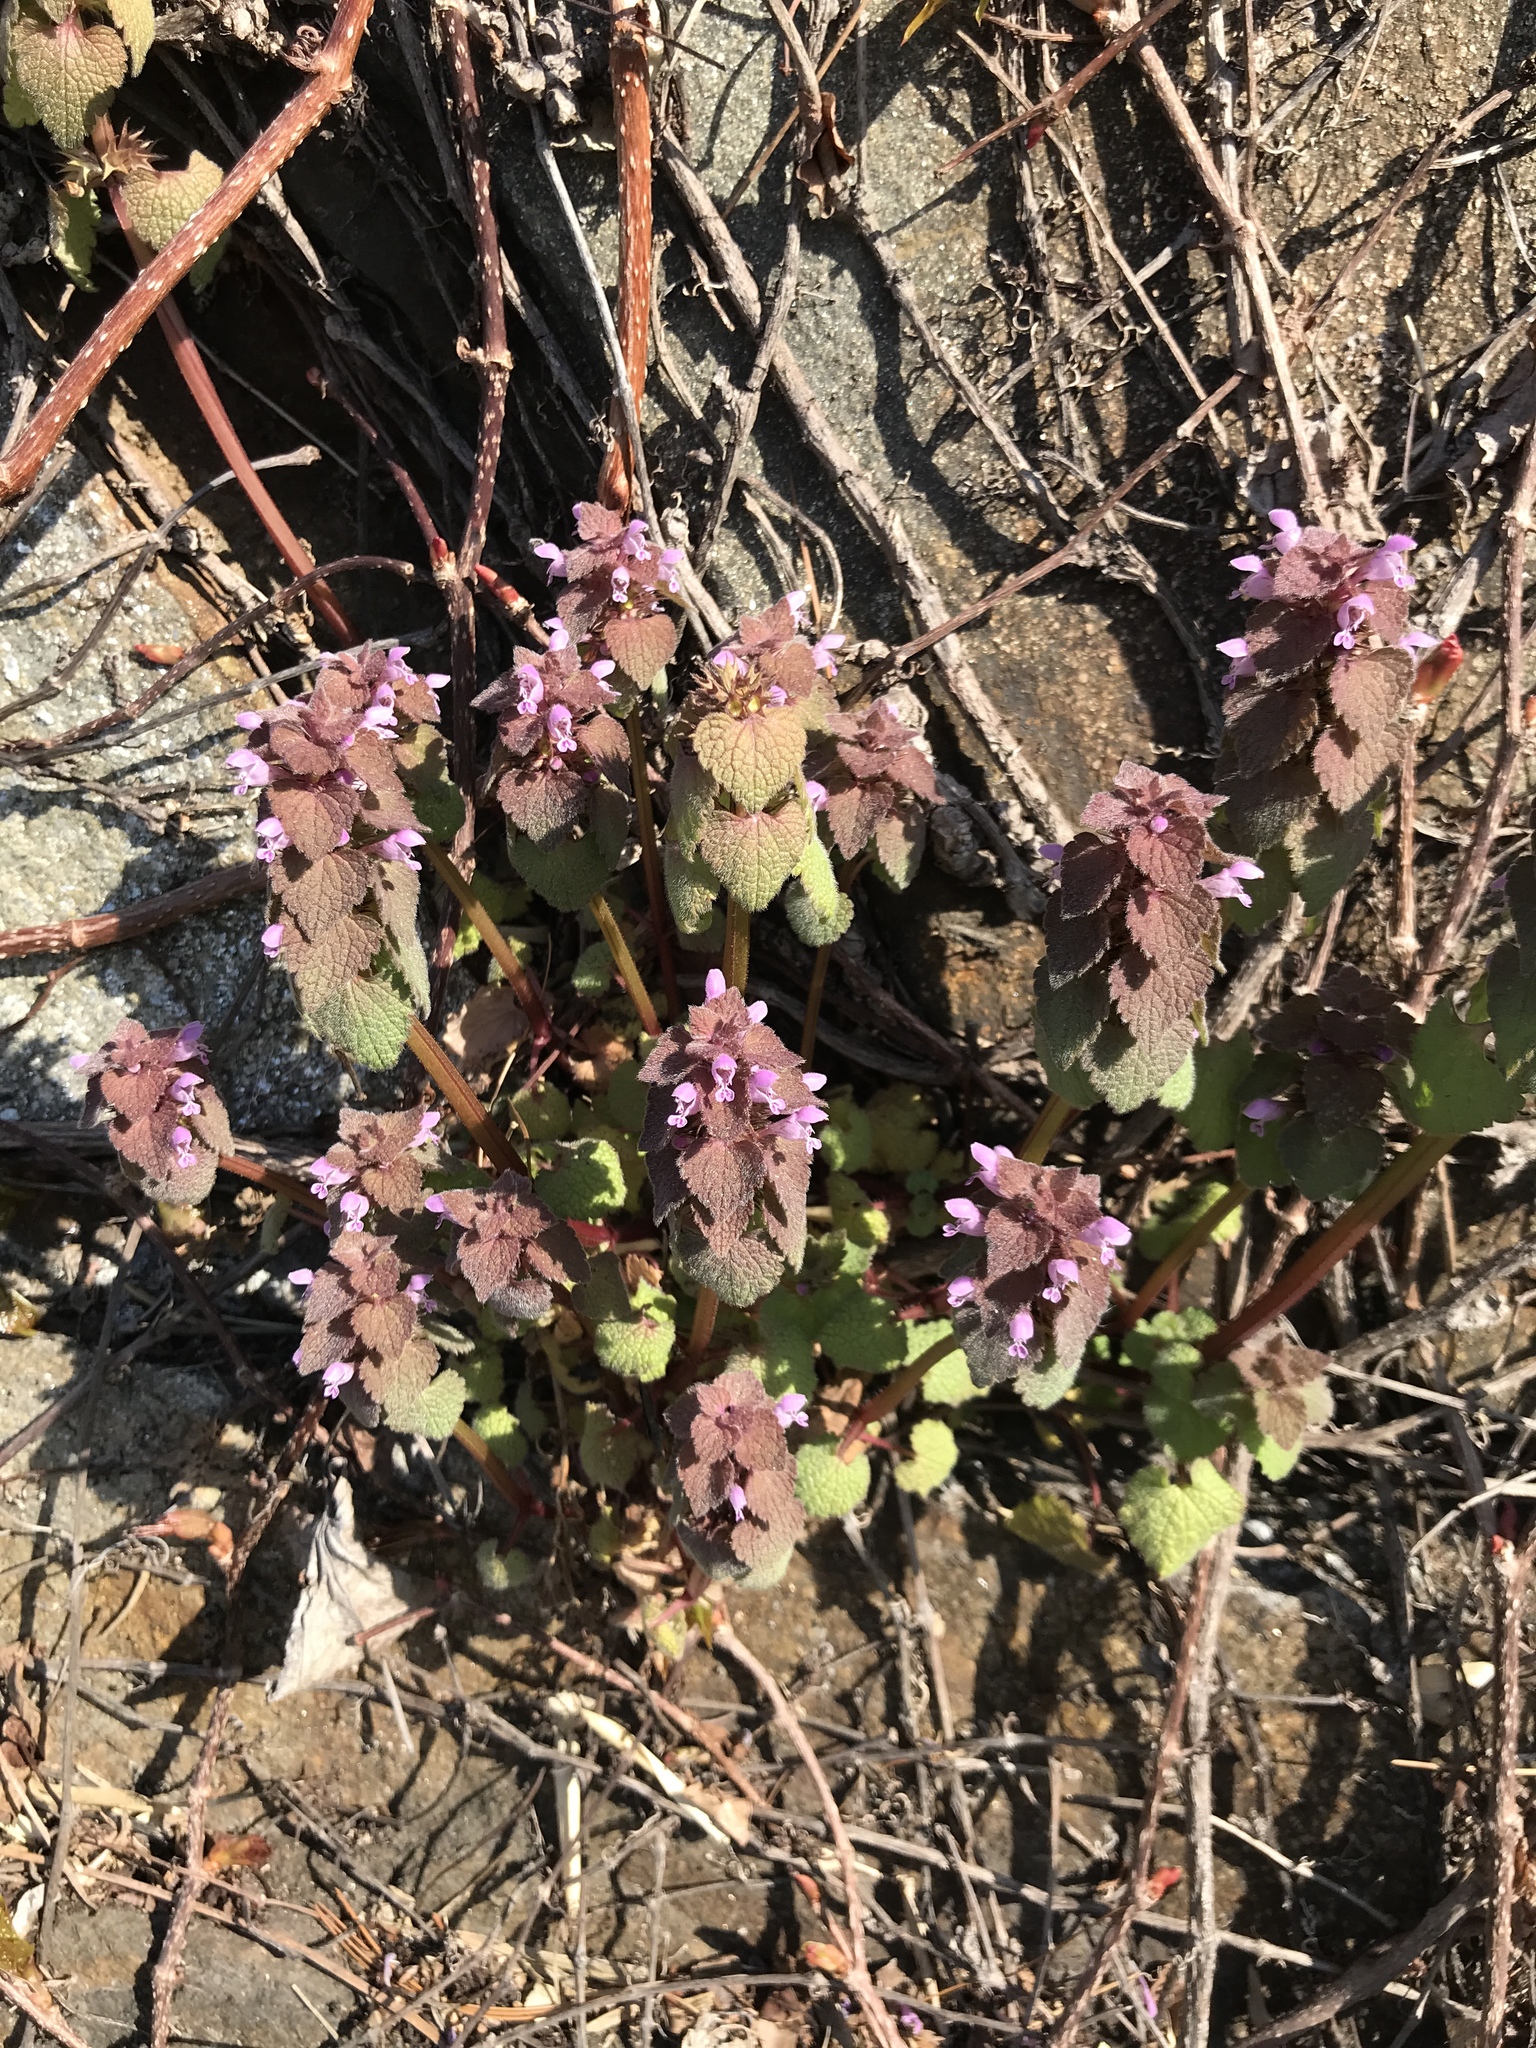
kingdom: Plantae
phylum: Tracheophyta
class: Magnoliopsida
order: Lamiales
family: Lamiaceae
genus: Lamium
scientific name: Lamium purpureum
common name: Red dead-nettle
